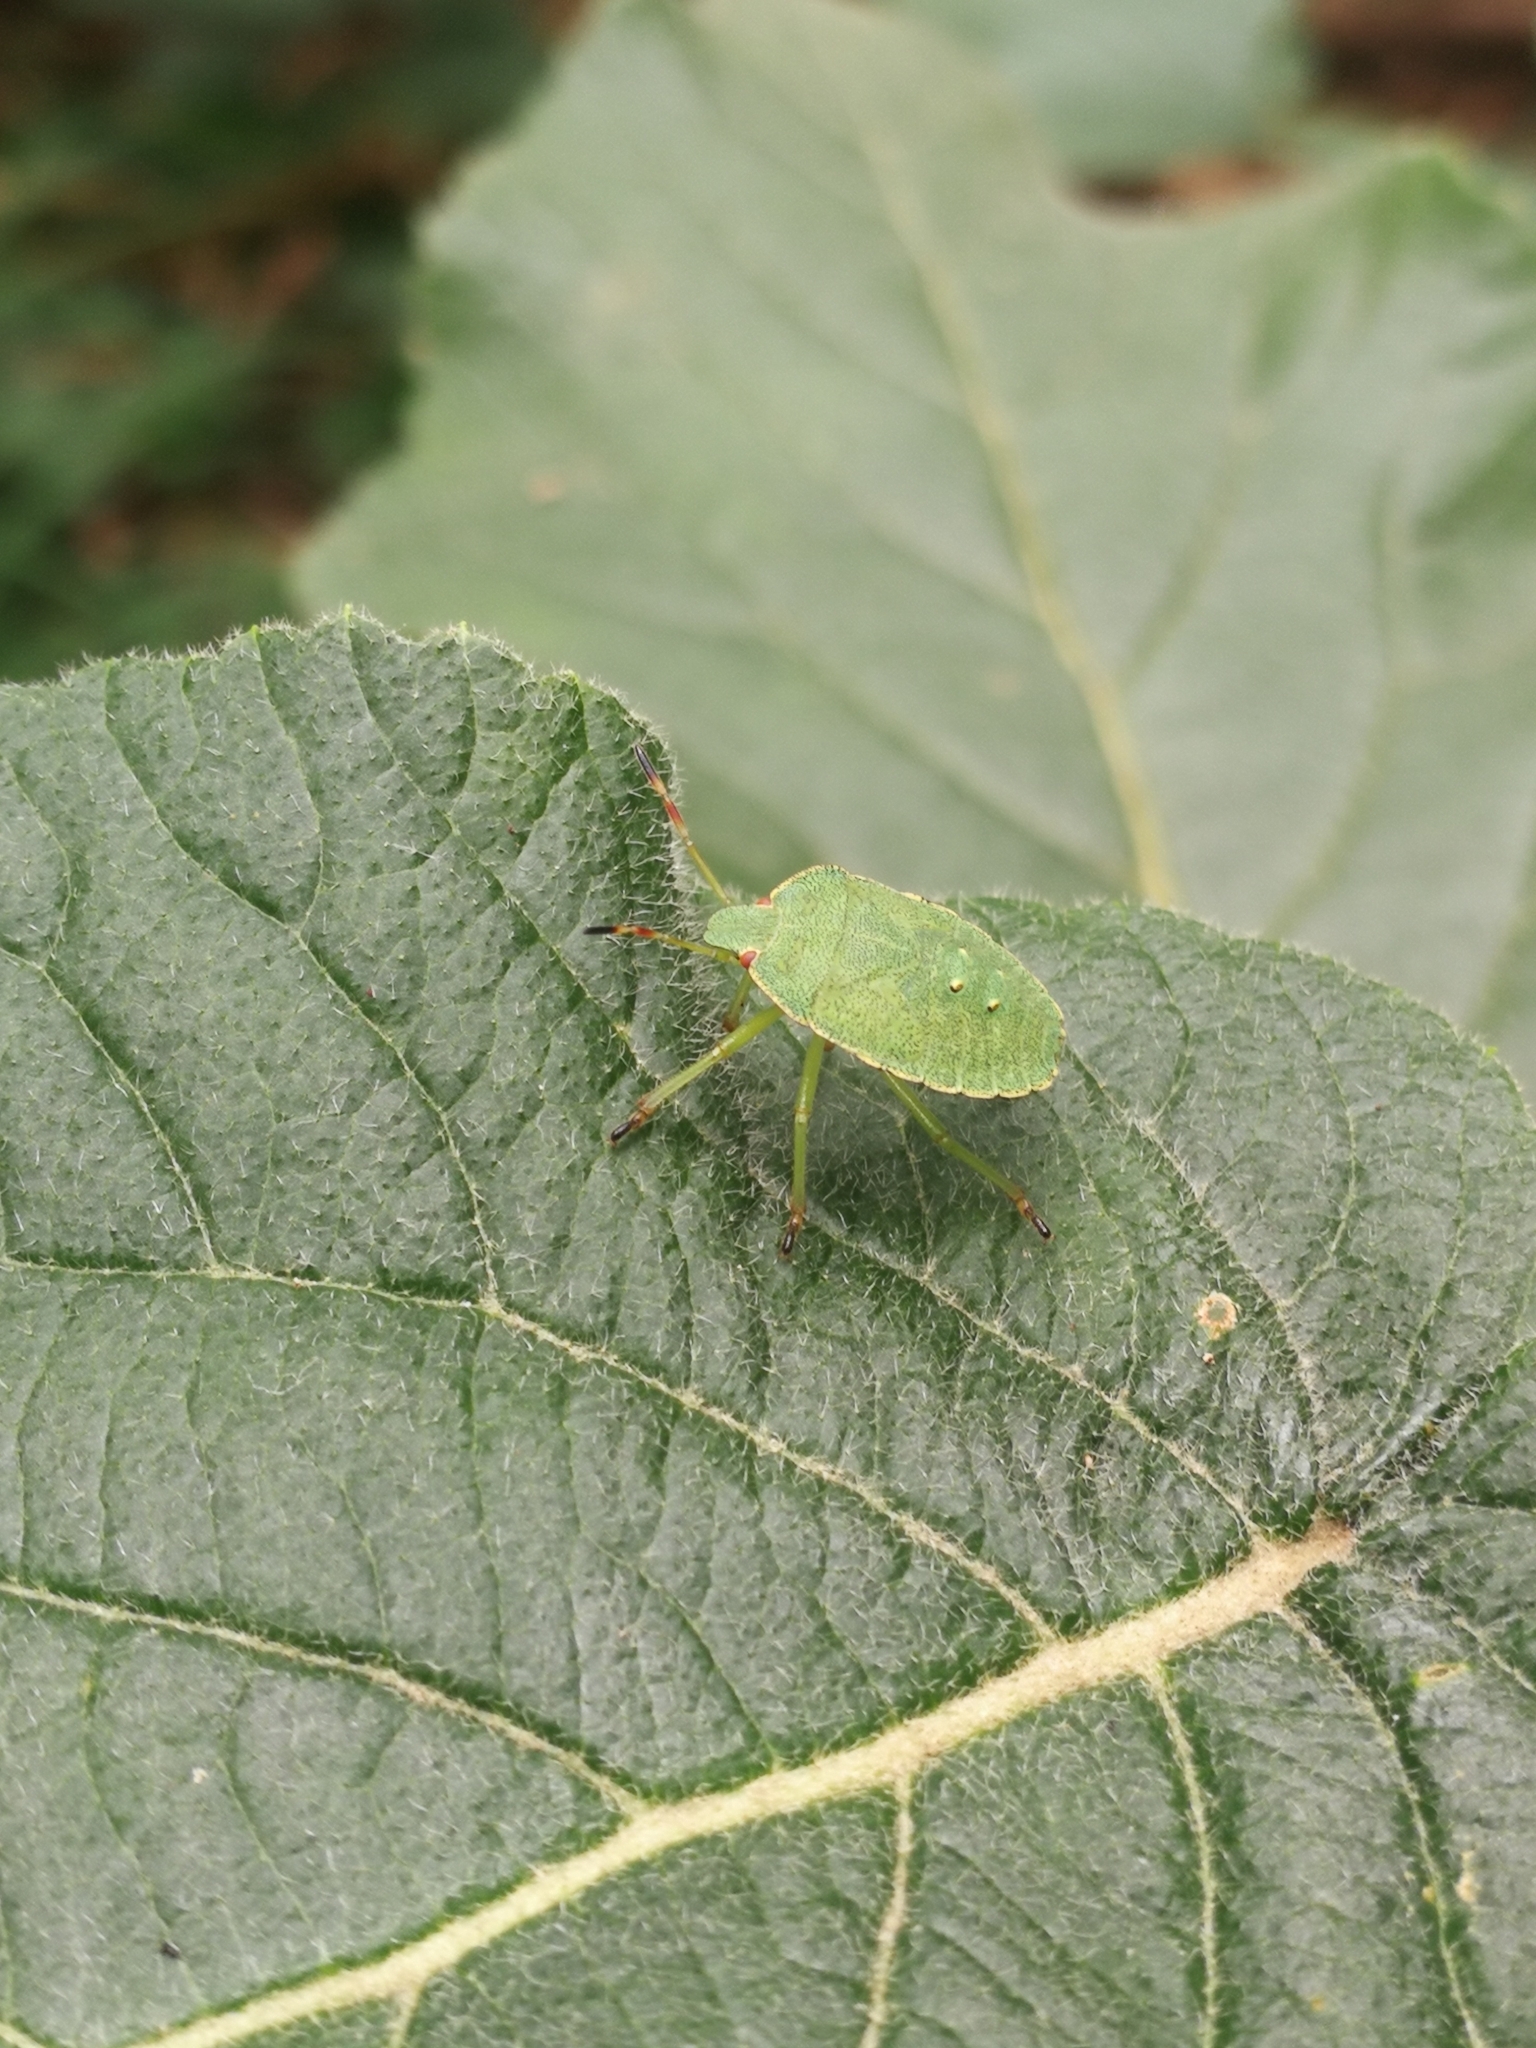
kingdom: Animalia
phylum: Arthropoda
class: Insecta
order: Hemiptera
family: Pentatomidae
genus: Palomena
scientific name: Palomena prasina
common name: Green shieldbug
